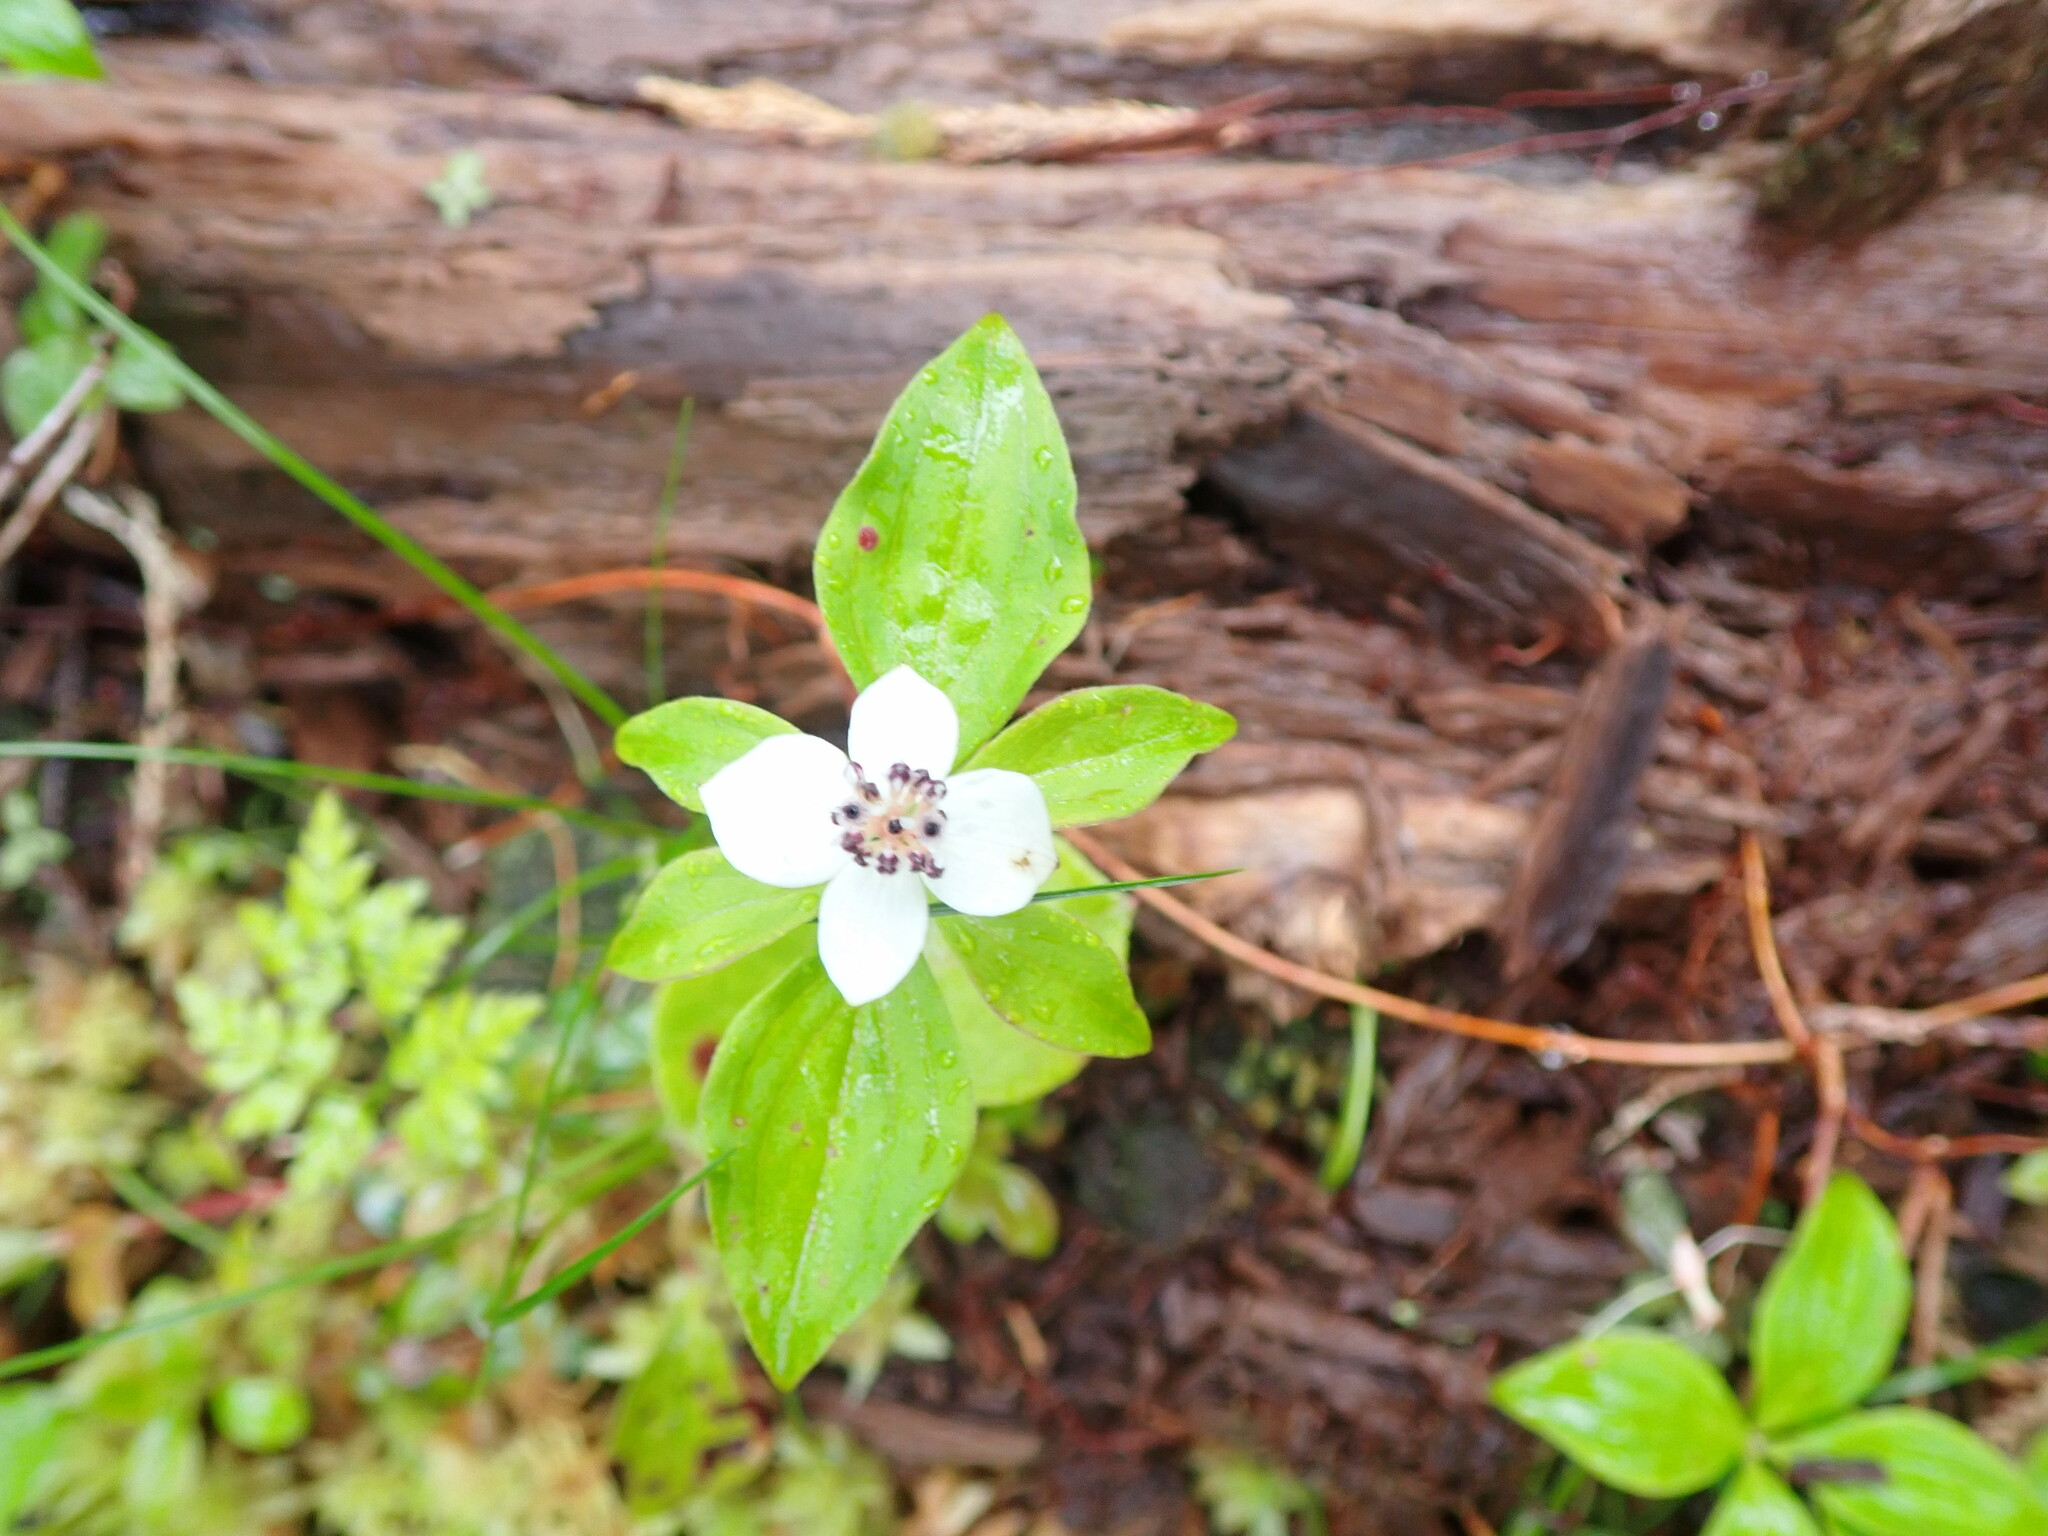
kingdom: Plantae
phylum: Tracheophyta
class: Magnoliopsida
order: Cornales
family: Cornaceae
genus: Cornus
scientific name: Cornus unalaschkensis
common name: Alaska bunchberry
